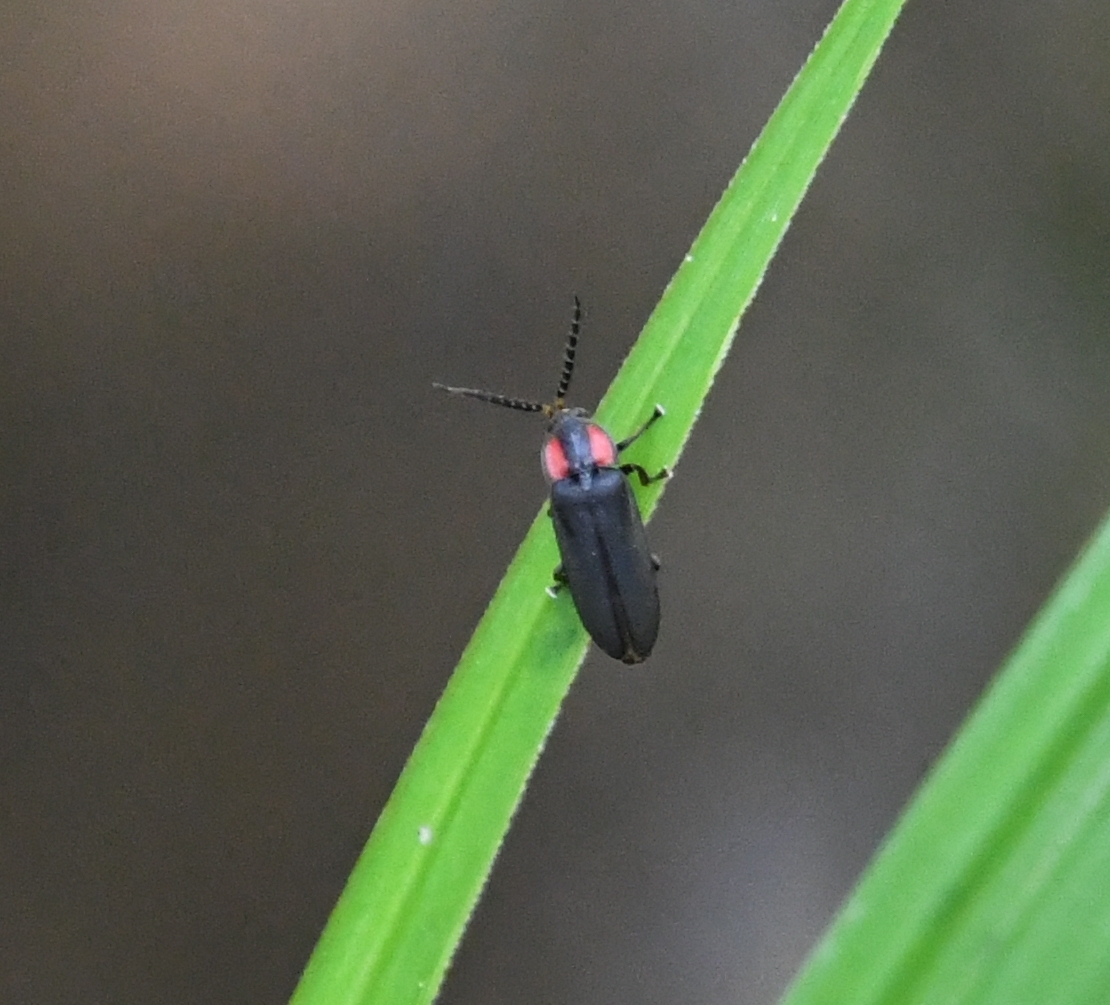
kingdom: Animalia
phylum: Arthropoda
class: Insecta
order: Coleoptera
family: Lampyridae
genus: Pyropyga
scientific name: Pyropyga nigricans
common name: Dark firefly
